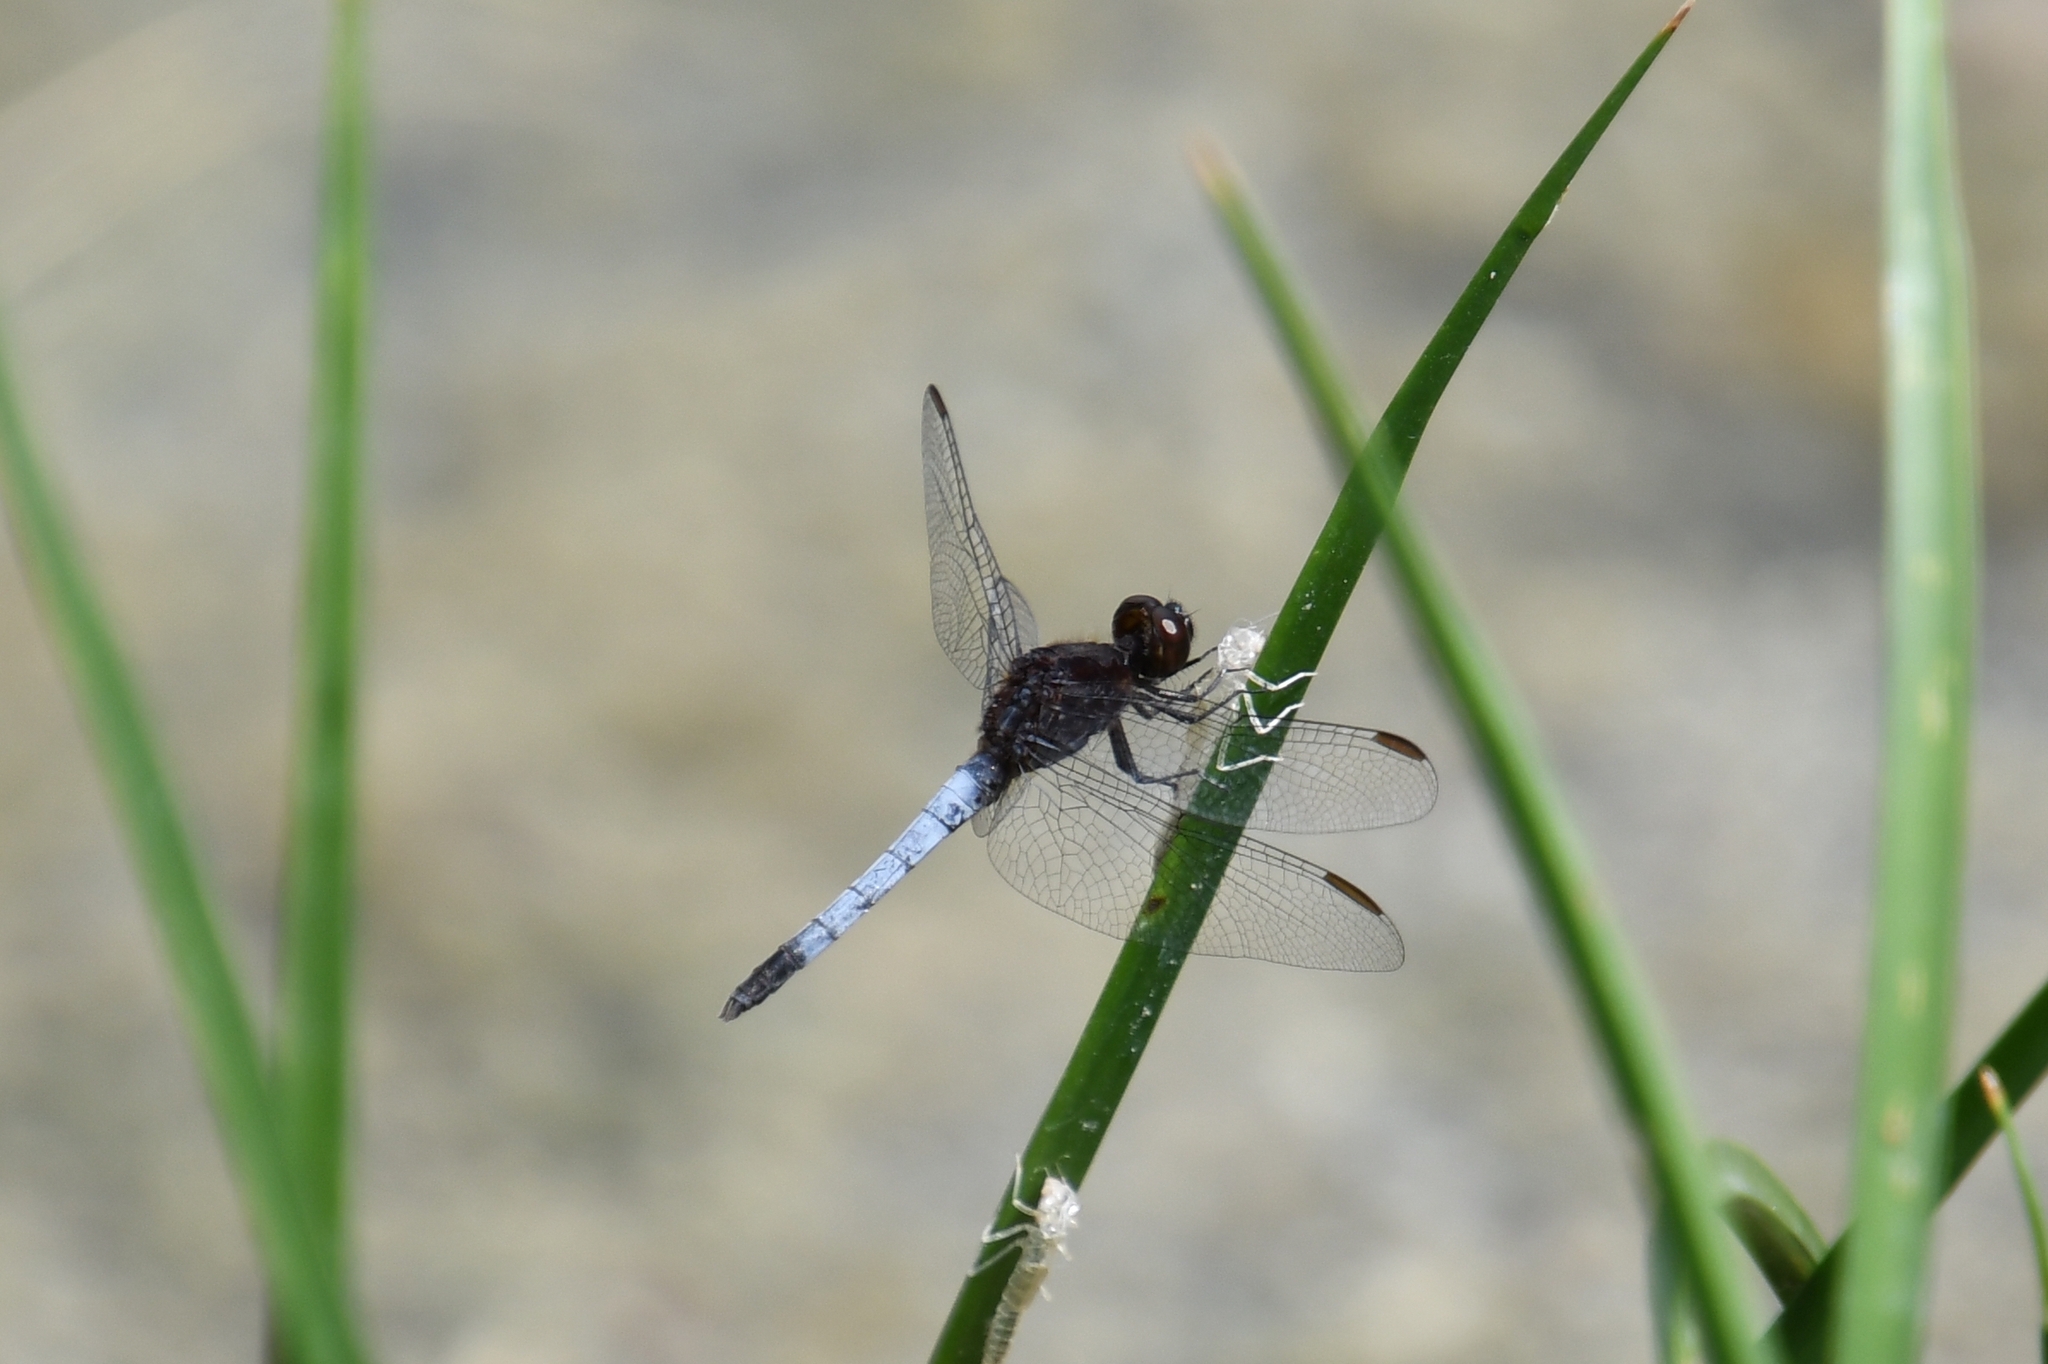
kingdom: Animalia
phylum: Arthropoda
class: Insecta
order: Odonata
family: Libellulidae
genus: Erythrodiplax
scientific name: Erythrodiplax basifusca
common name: Plateau dragonlet
